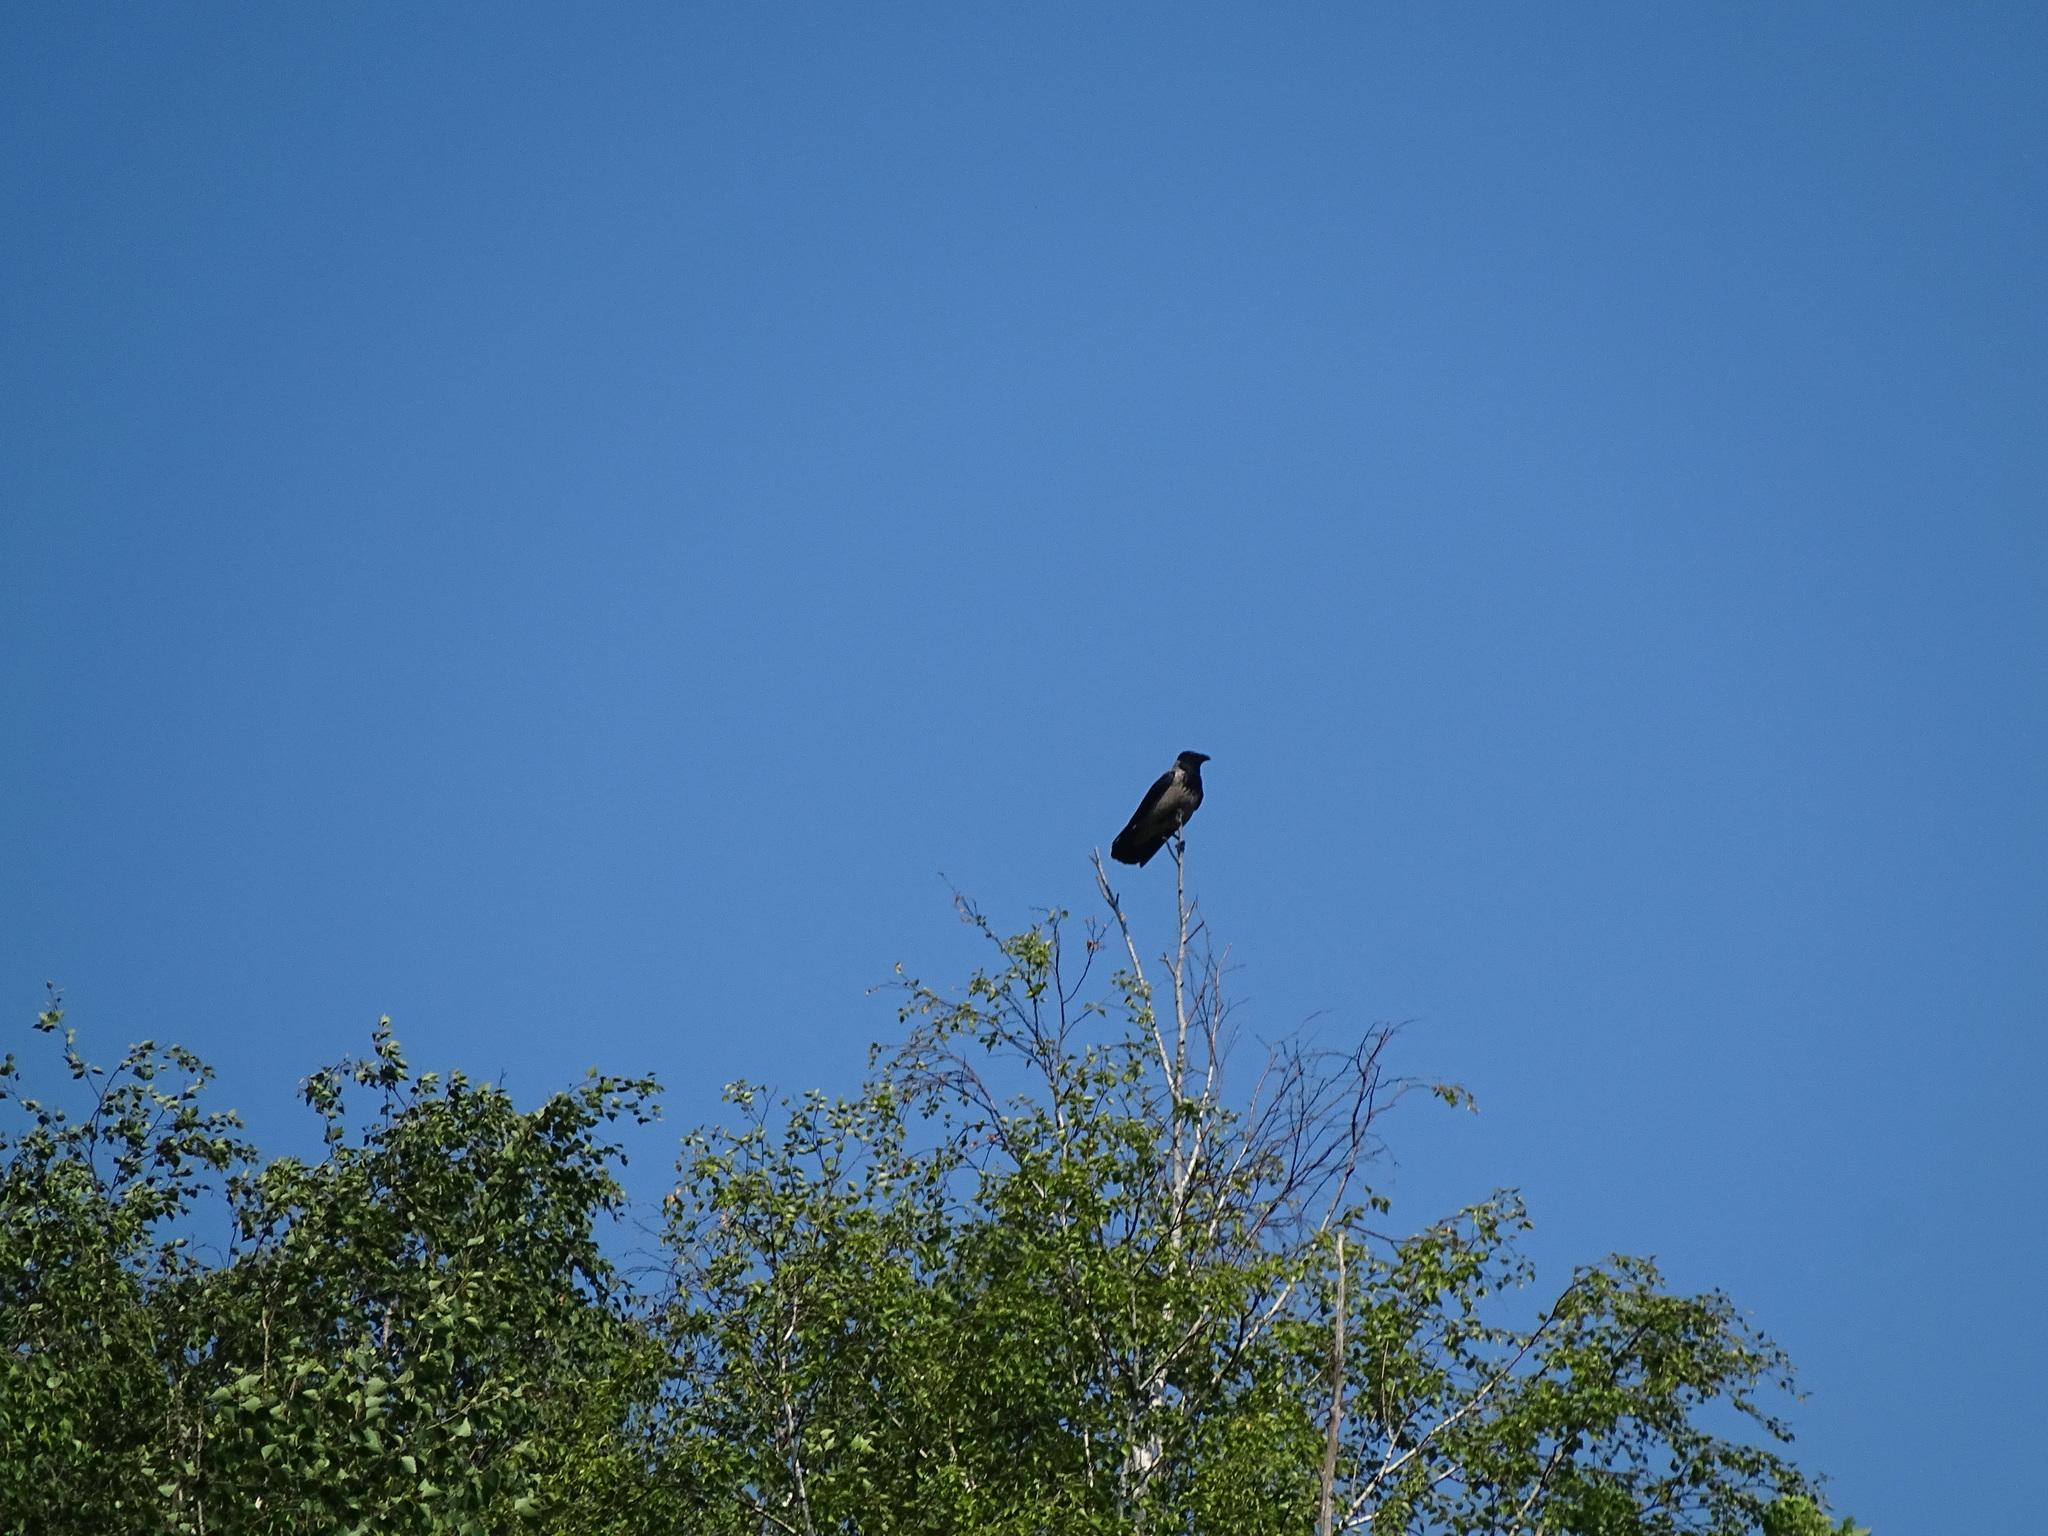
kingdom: Animalia
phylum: Chordata
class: Aves
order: Passeriformes
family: Corvidae
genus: Corvus
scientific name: Corvus cornix
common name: Hooded crow
